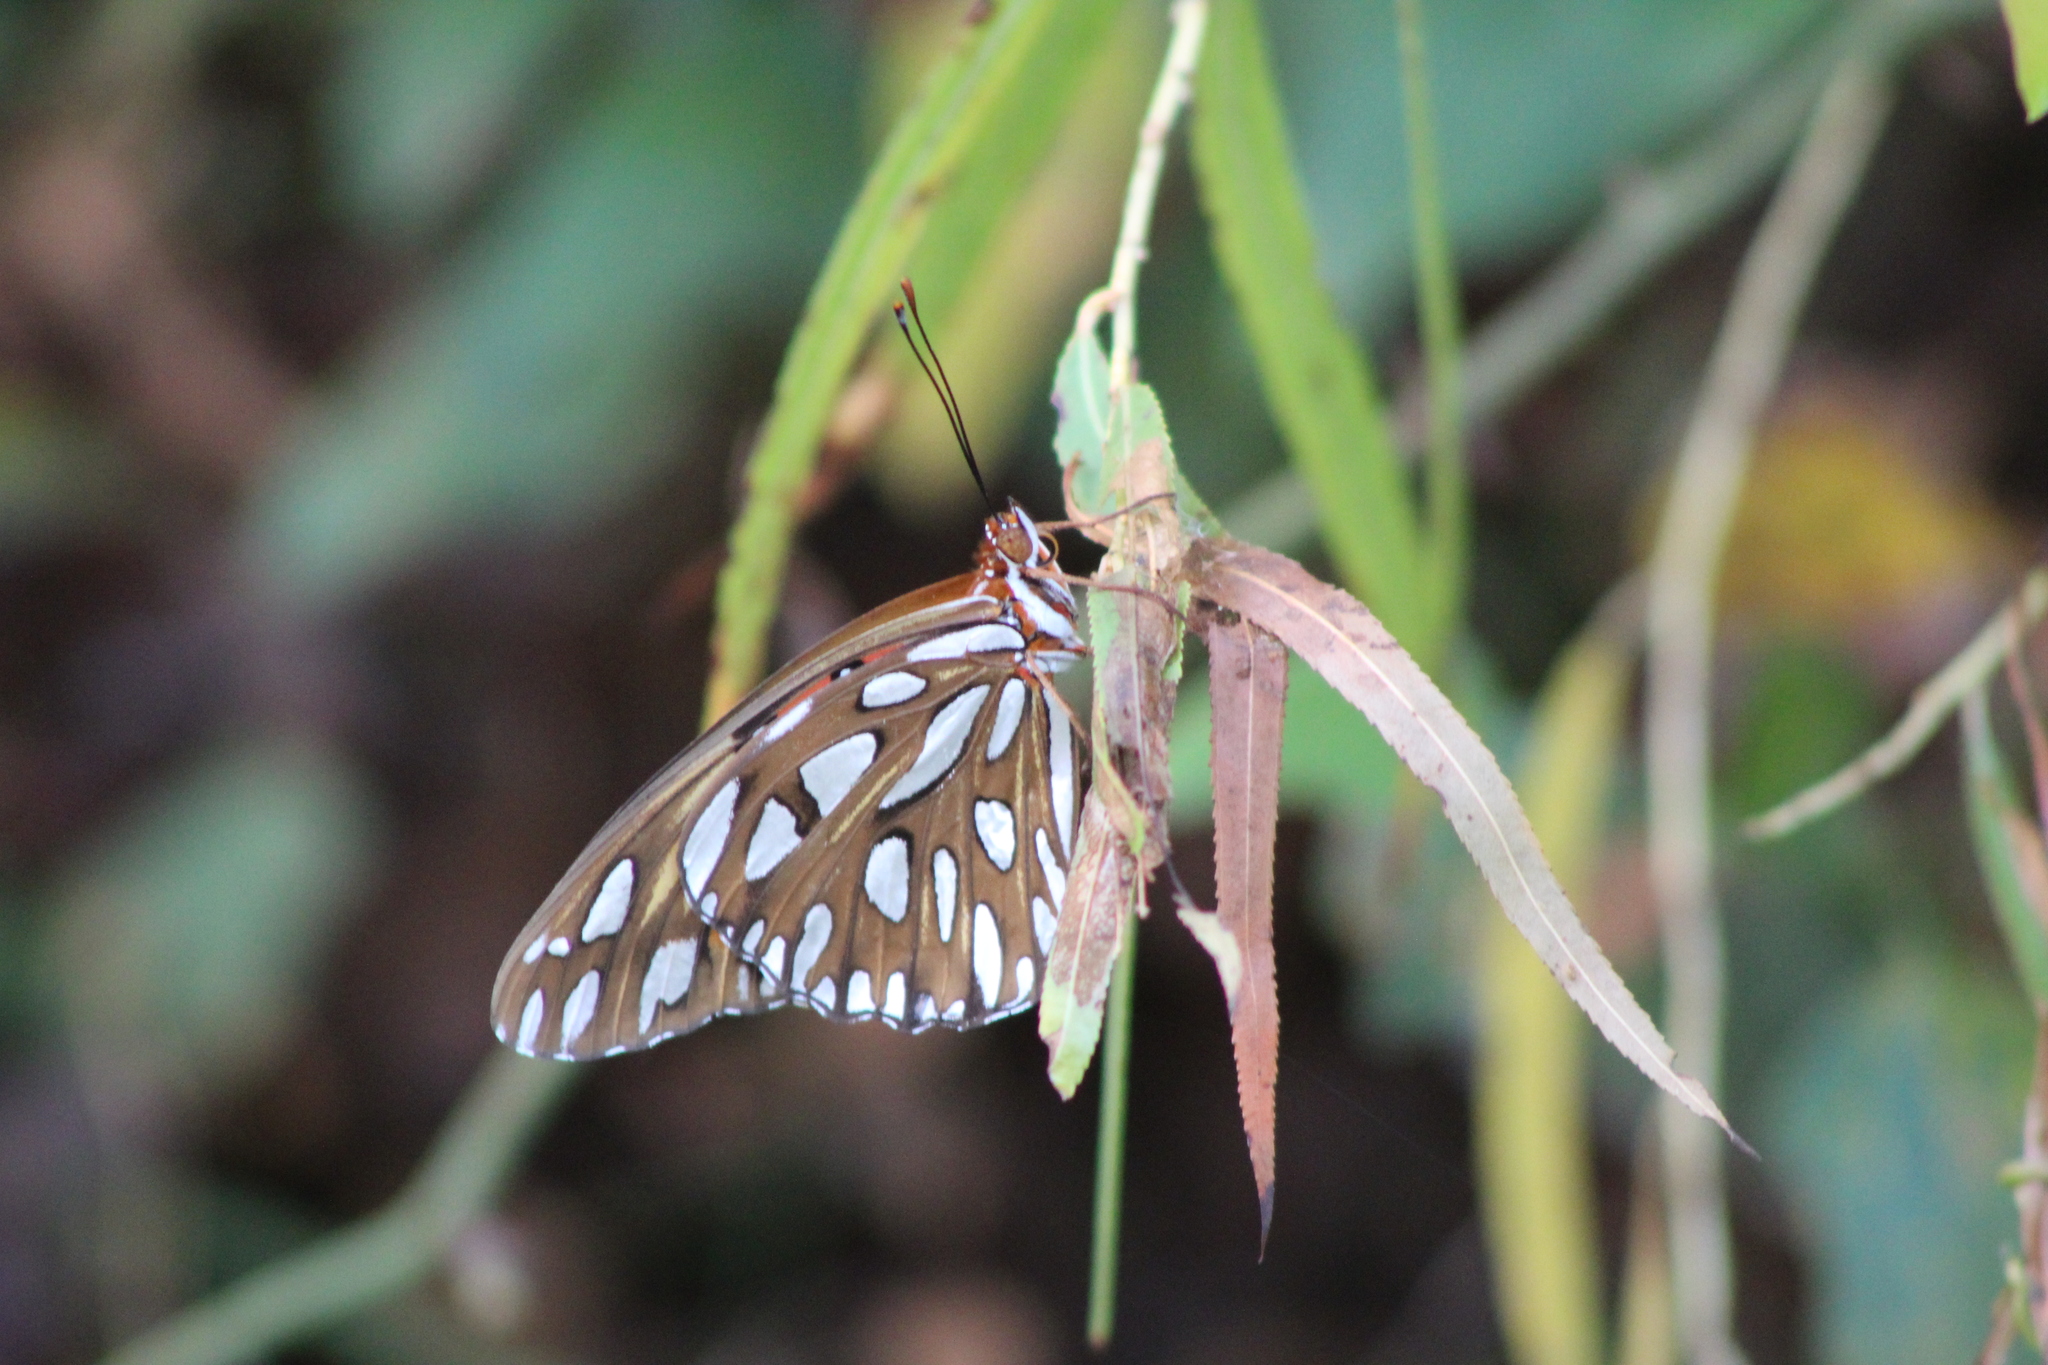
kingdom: Animalia
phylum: Arthropoda
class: Insecta
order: Lepidoptera
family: Nymphalidae
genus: Dione
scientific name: Dione vanillae
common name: Gulf fritillary
